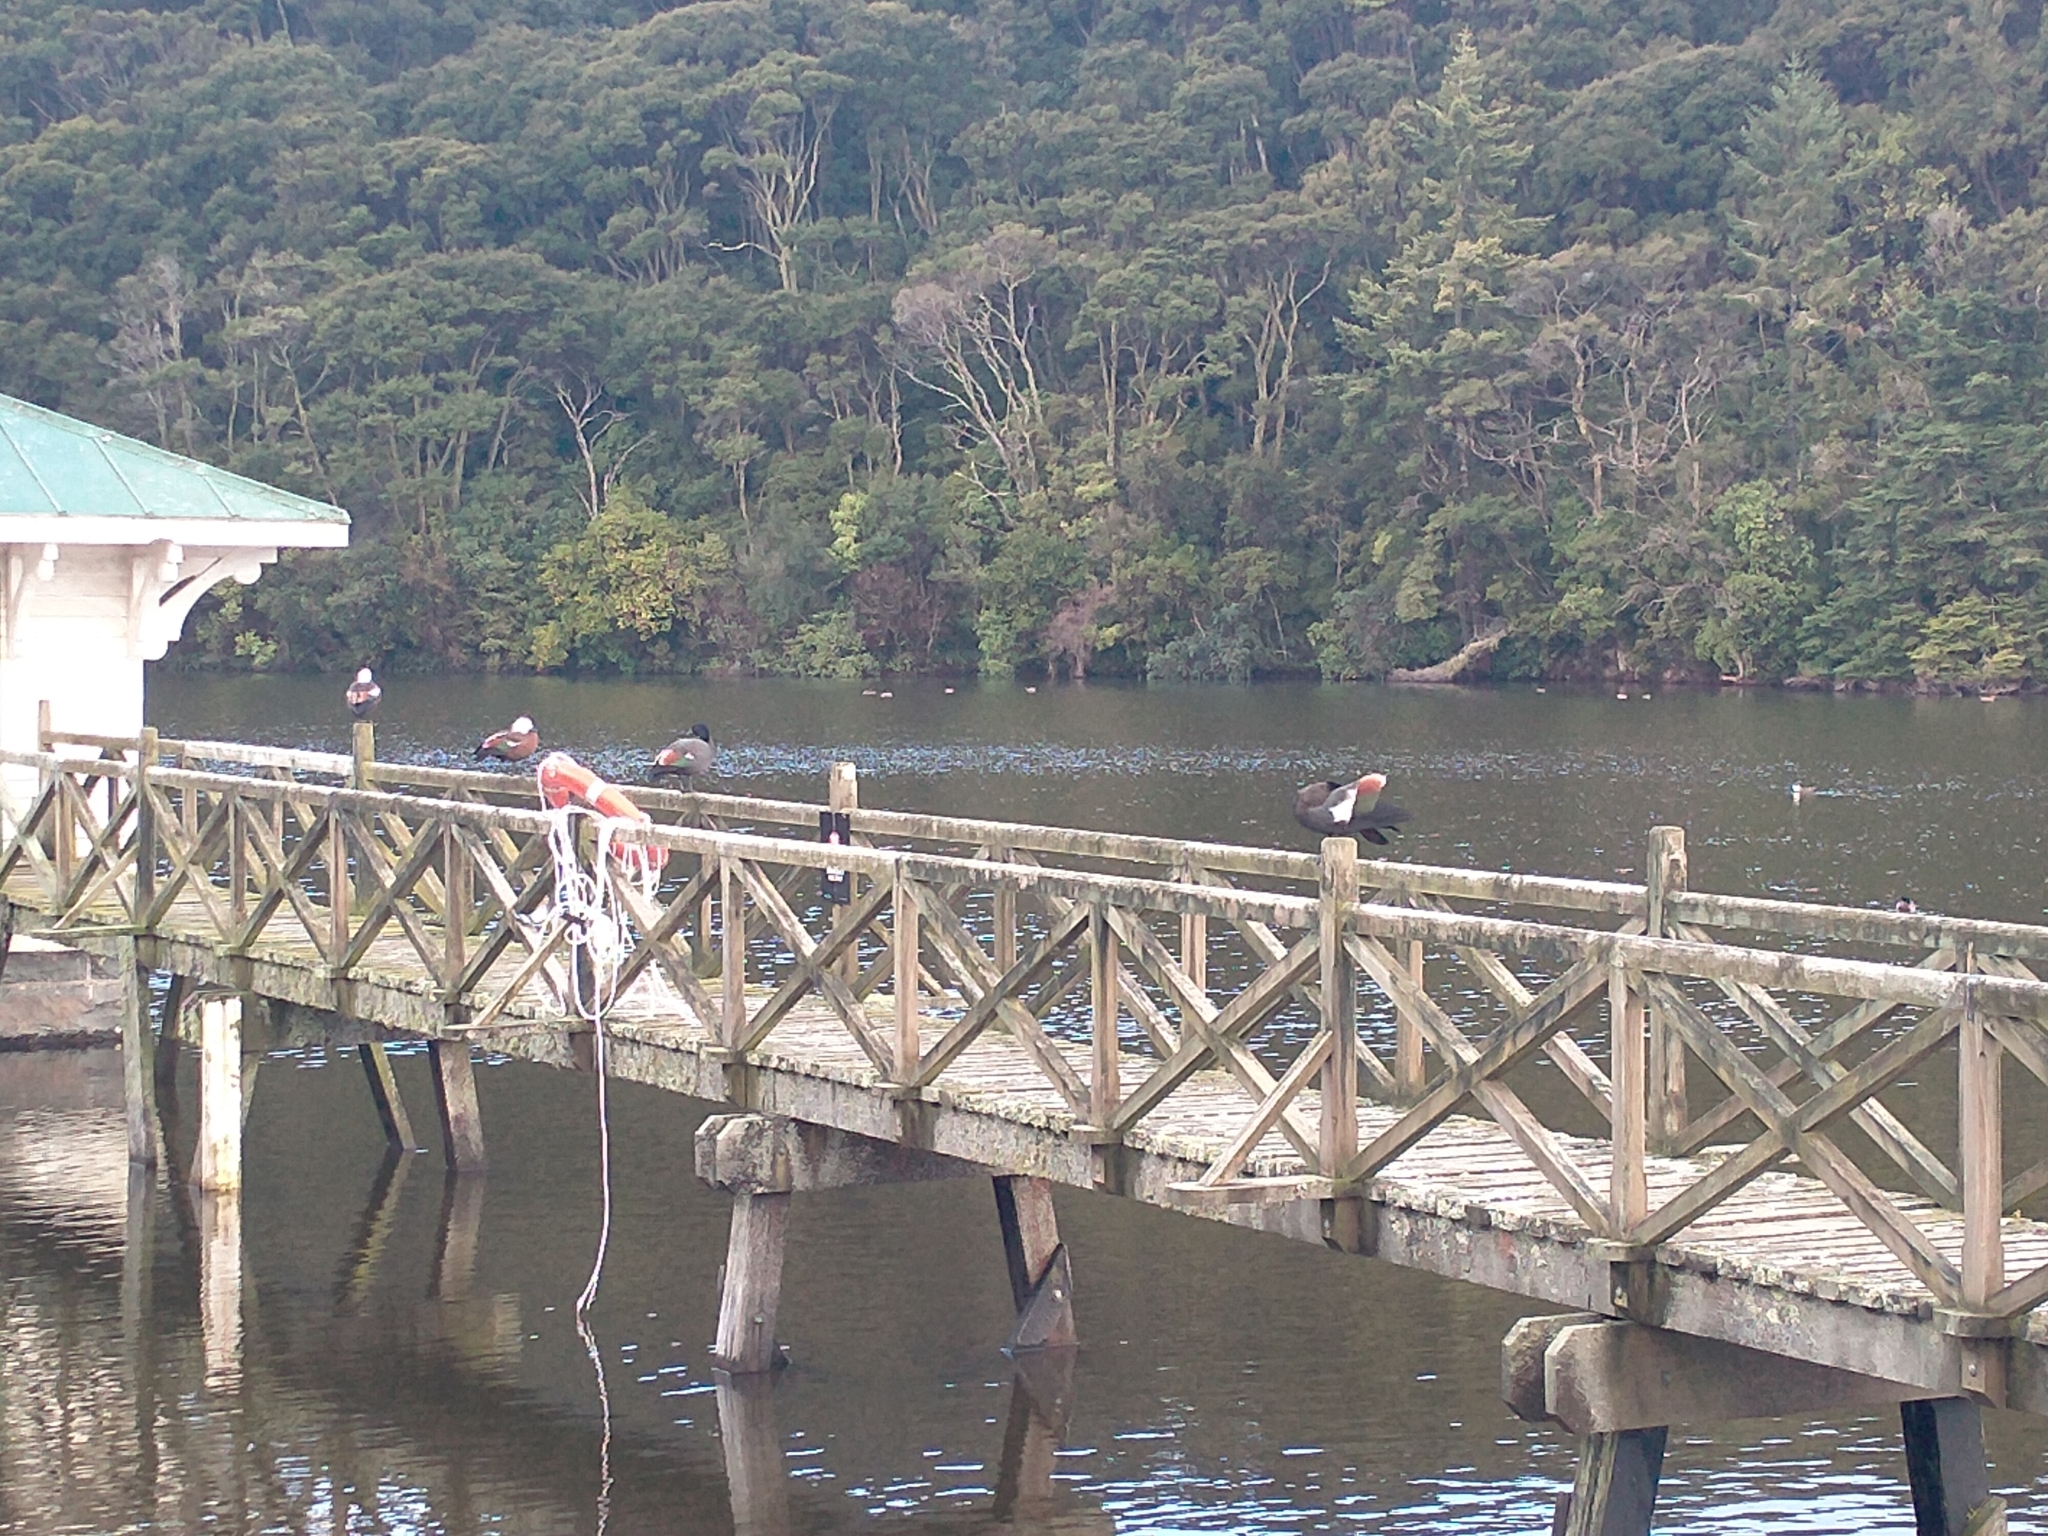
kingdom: Animalia
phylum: Chordata
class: Aves
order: Anseriformes
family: Anatidae
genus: Tadorna
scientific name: Tadorna variegata
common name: Paradise shelduck
